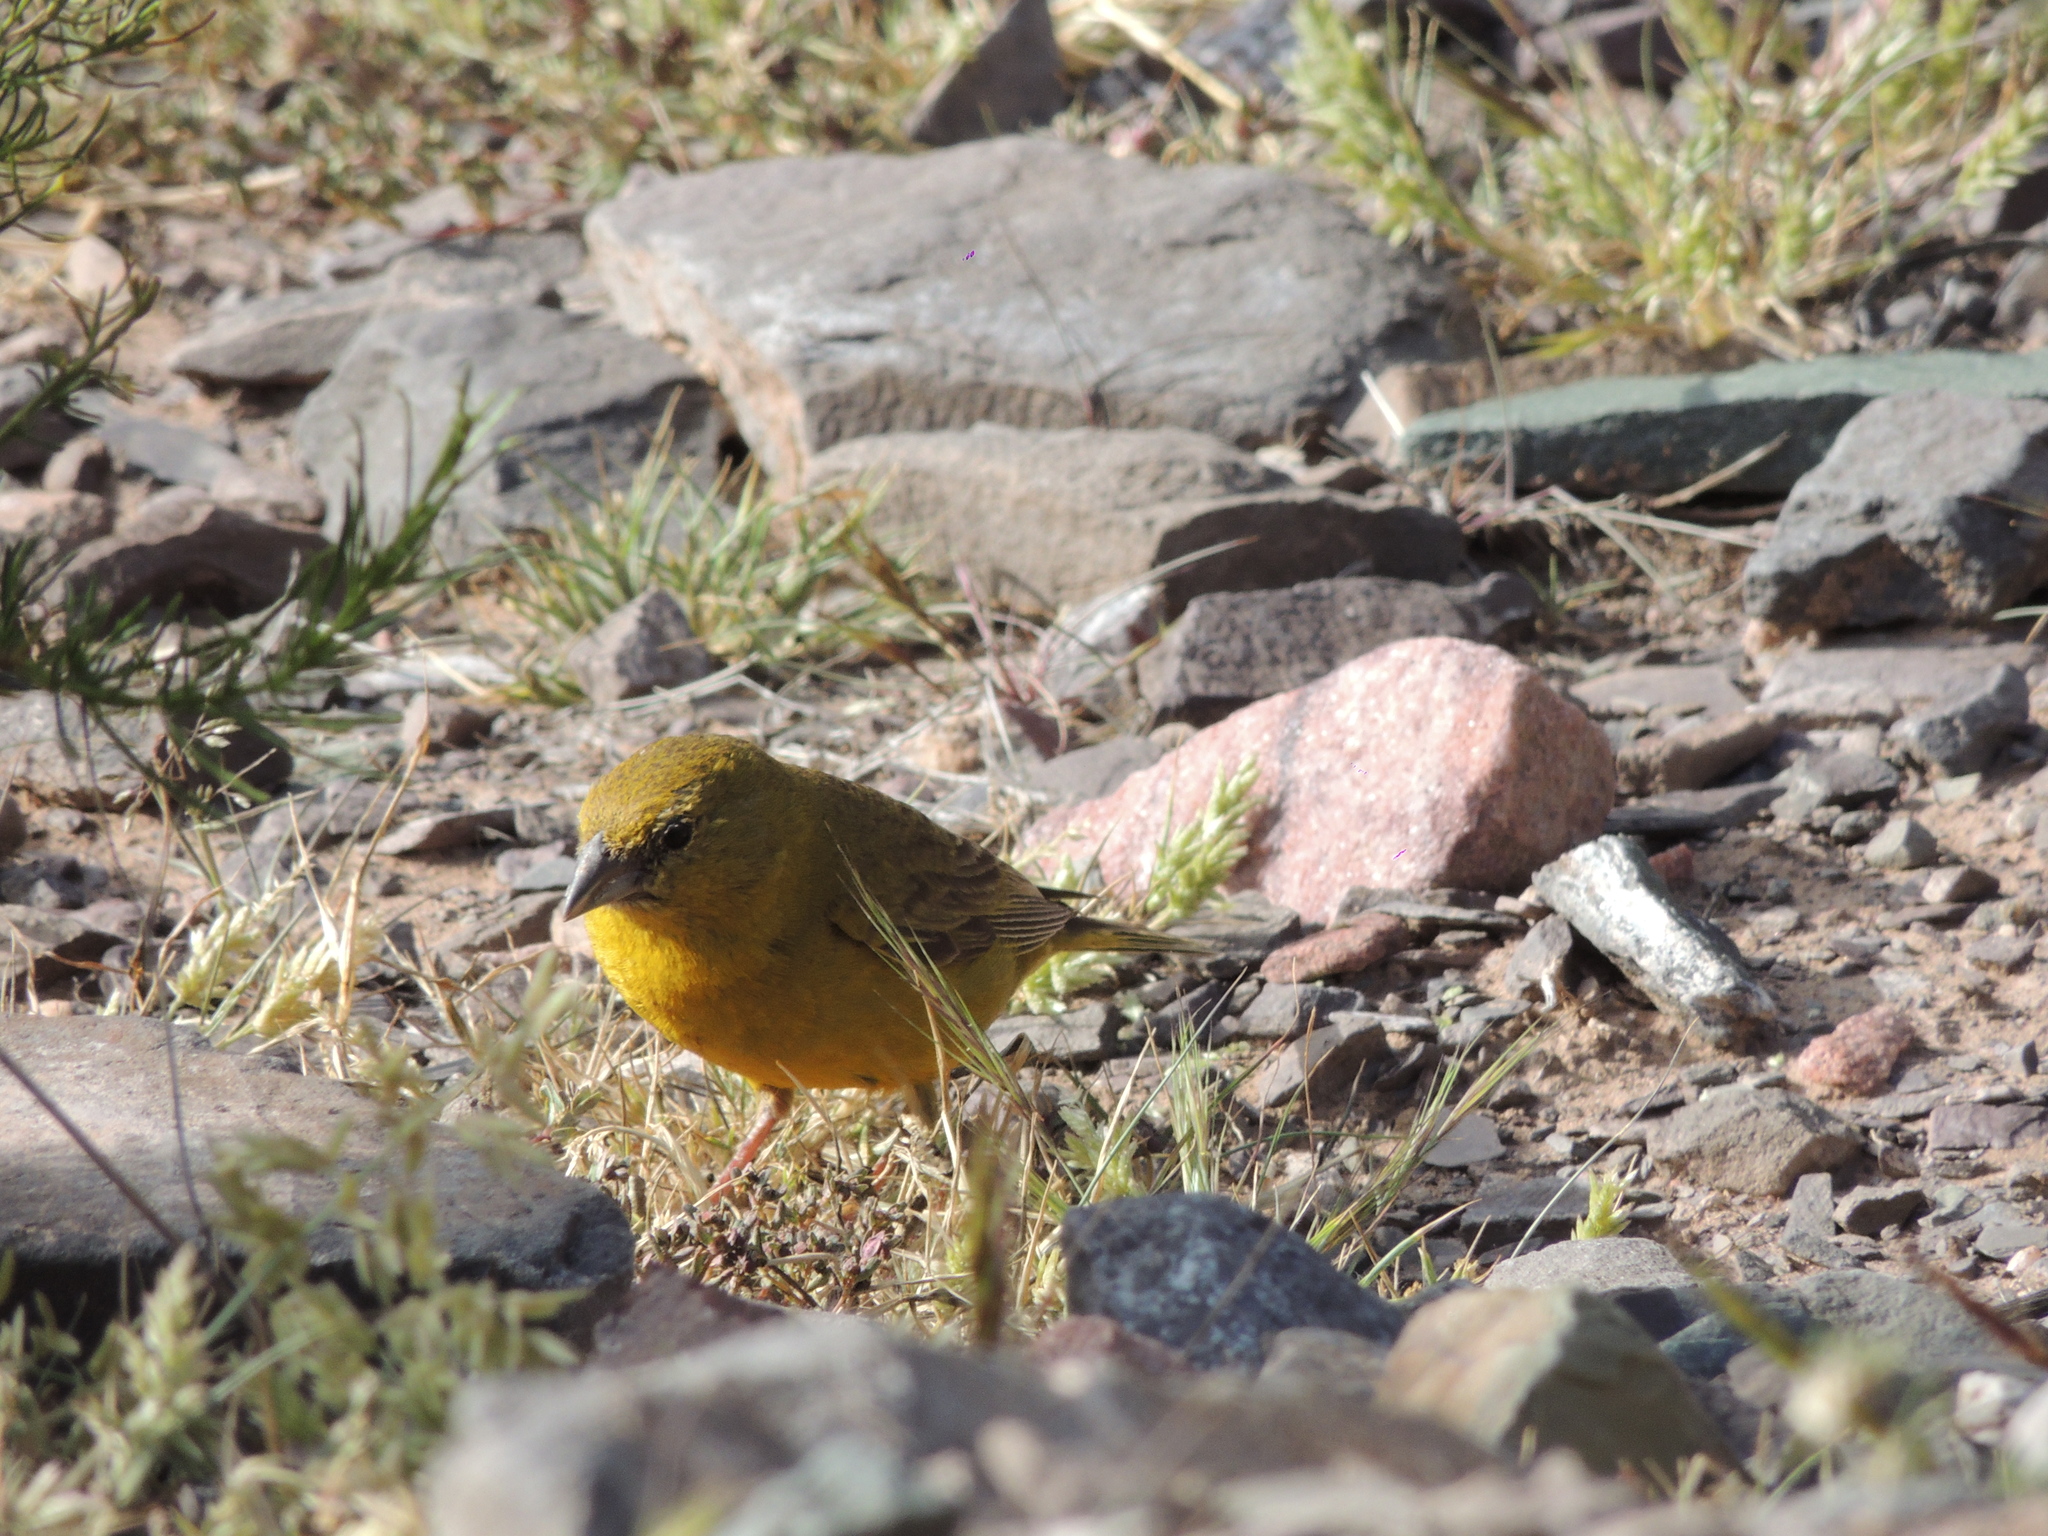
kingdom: Animalia
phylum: Chordata
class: Aves
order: Passeriformes
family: Thraupidae
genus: Sicalis
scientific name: Sicalis olivascens
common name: Greenish yellow finch
